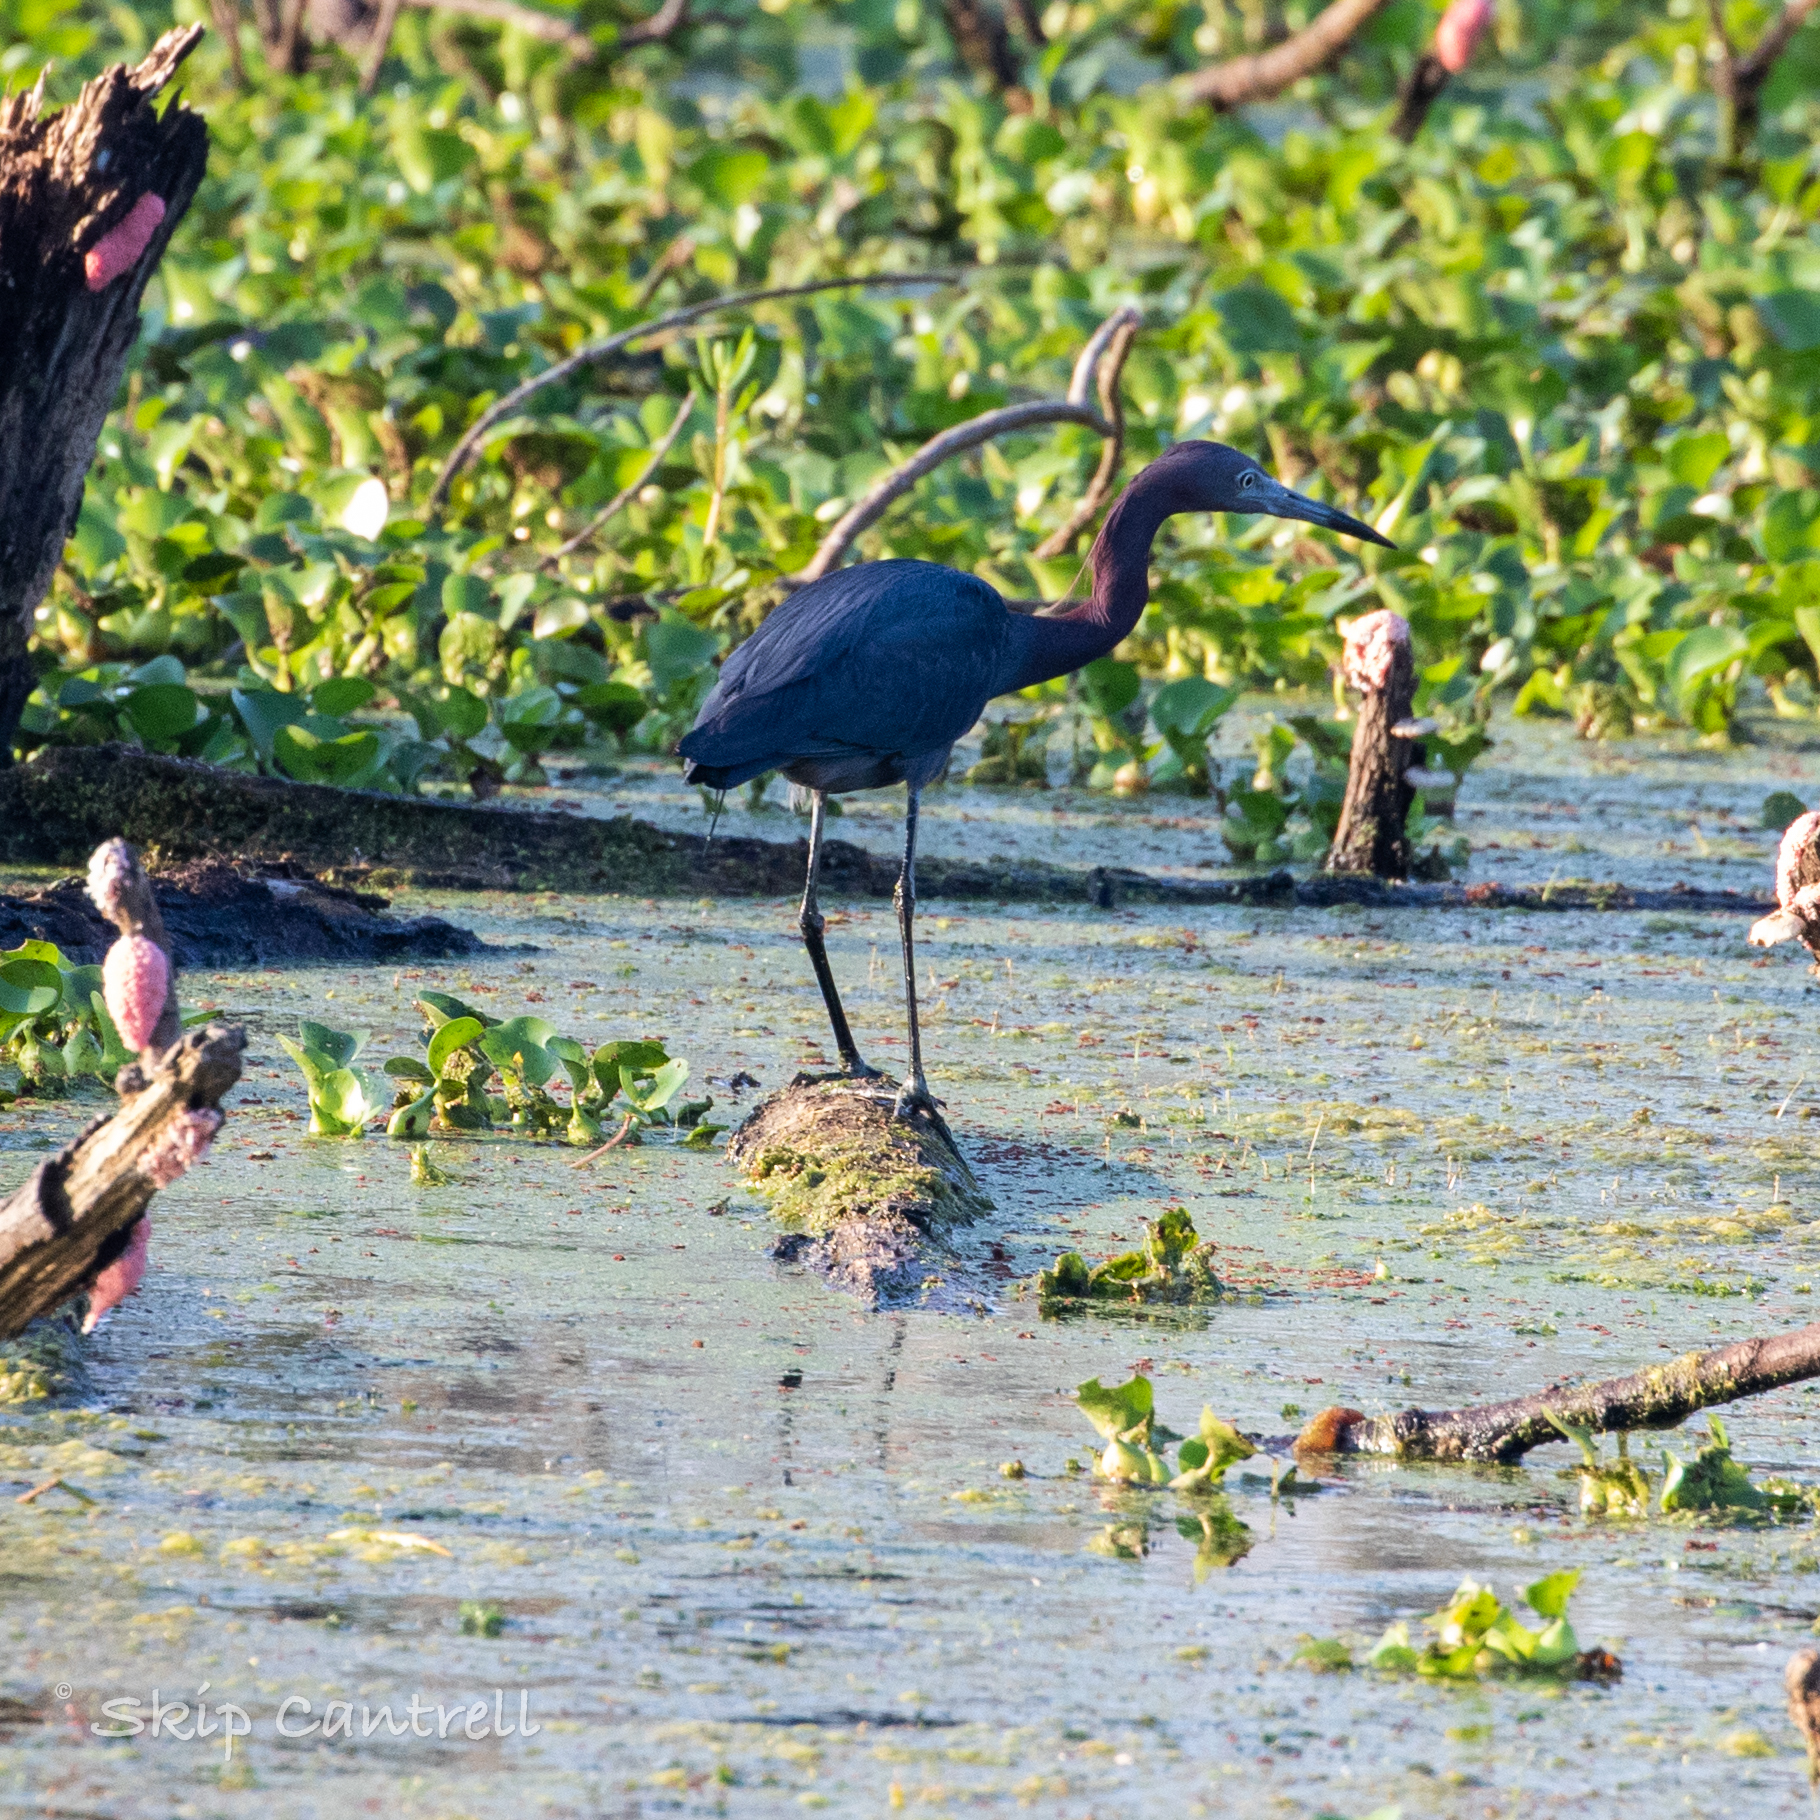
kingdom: Animalia
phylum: Chordata
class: Aves
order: Pelecaniformes
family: Ardeidae
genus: Egretta
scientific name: Egretta caerulea
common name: Little blue heron
